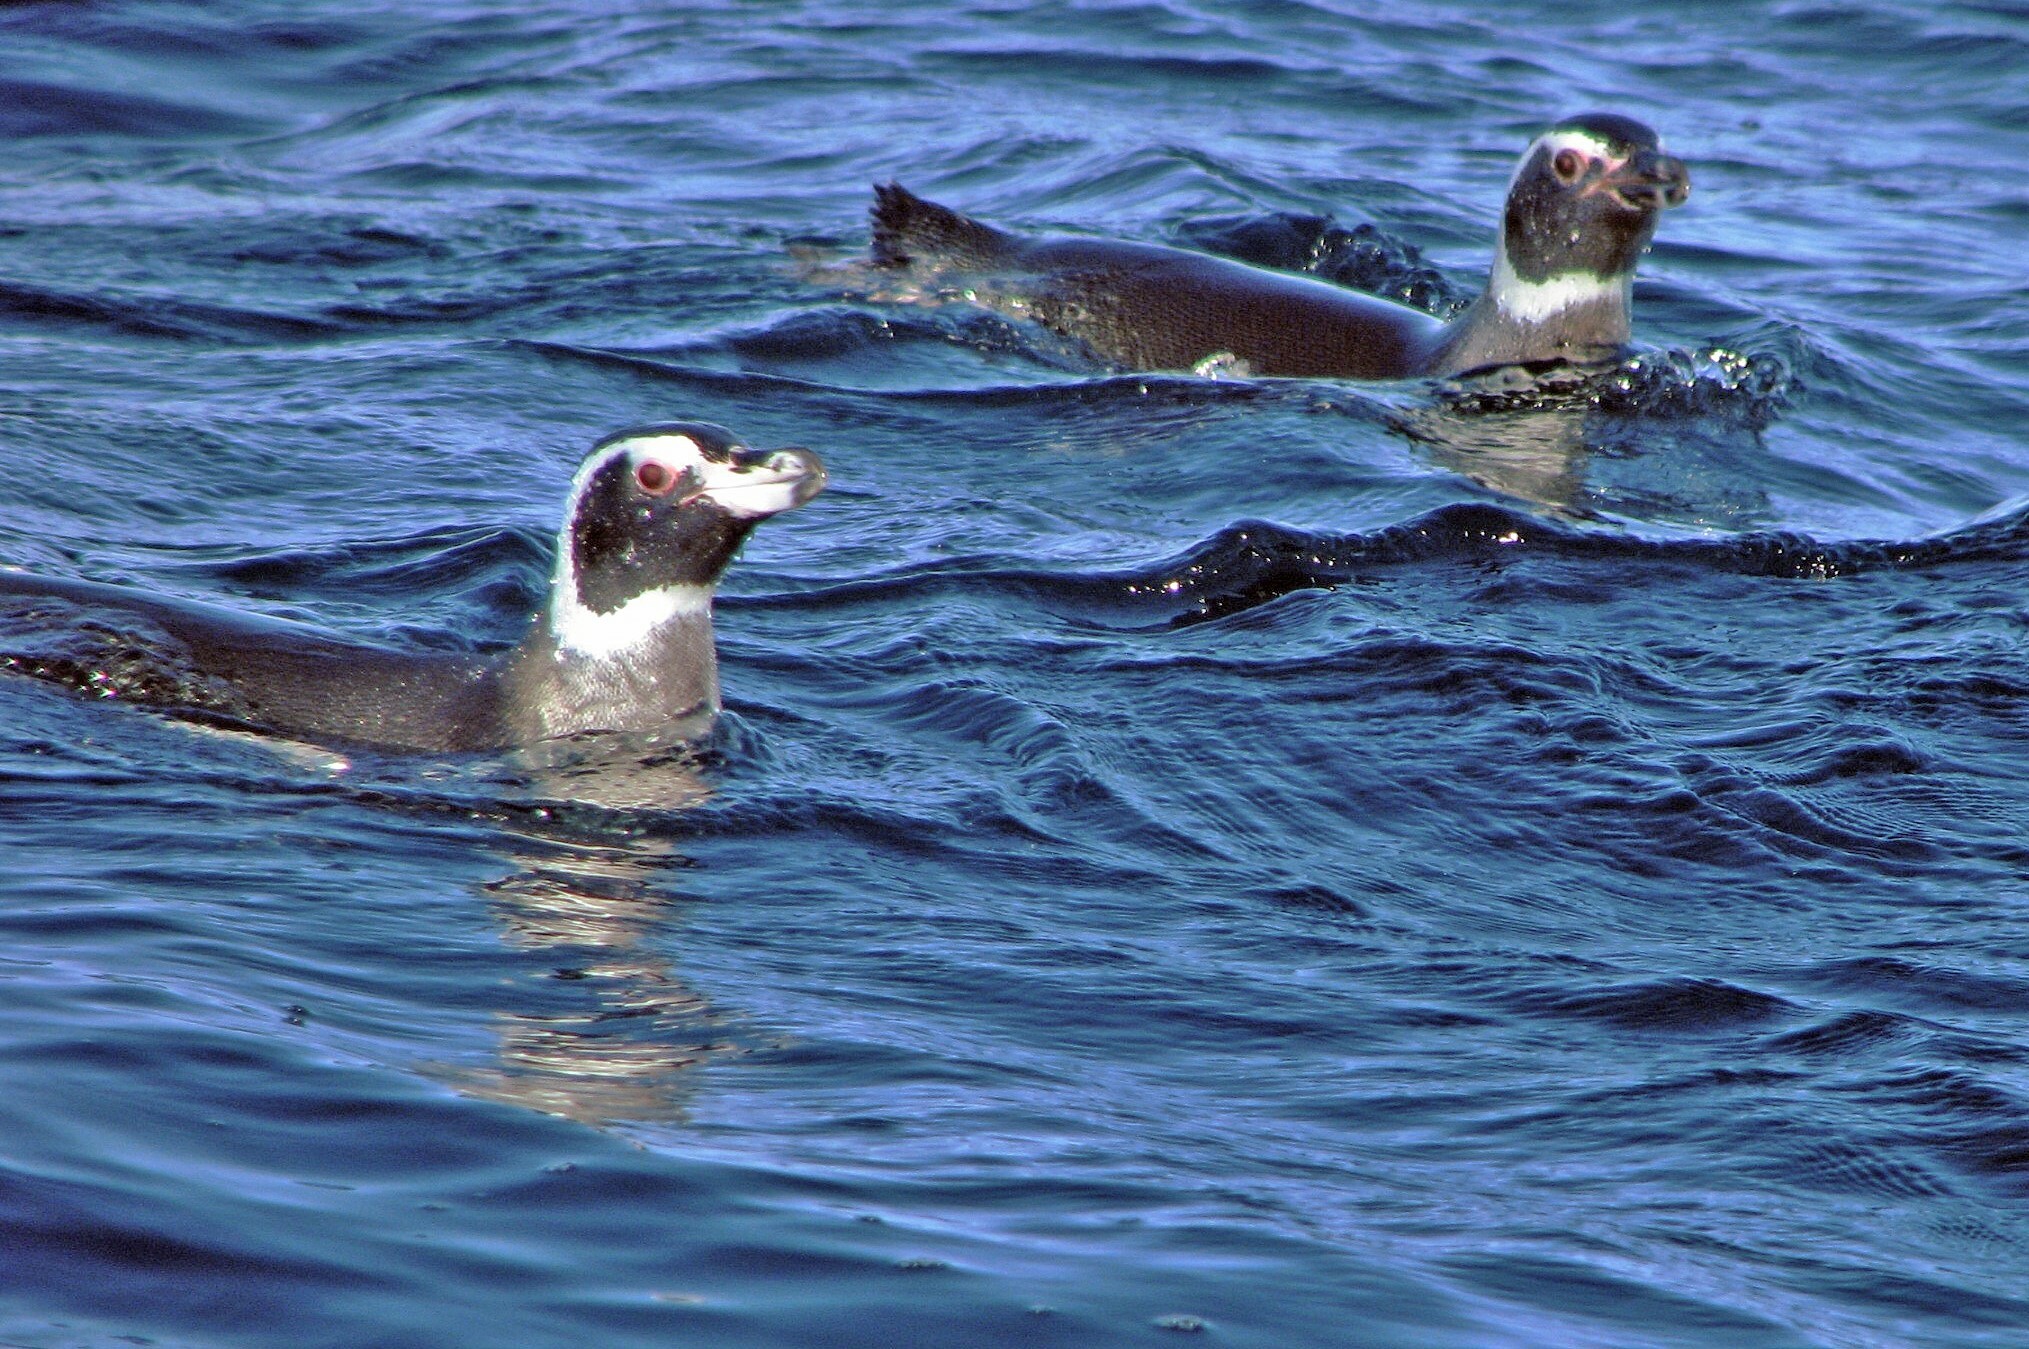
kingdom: Animalia
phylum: Chordata
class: Aves
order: Sphenisciformes
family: Spheniscidae
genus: Spheniscus
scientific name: Spheniscus magellanicus
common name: Magellanic penguin
